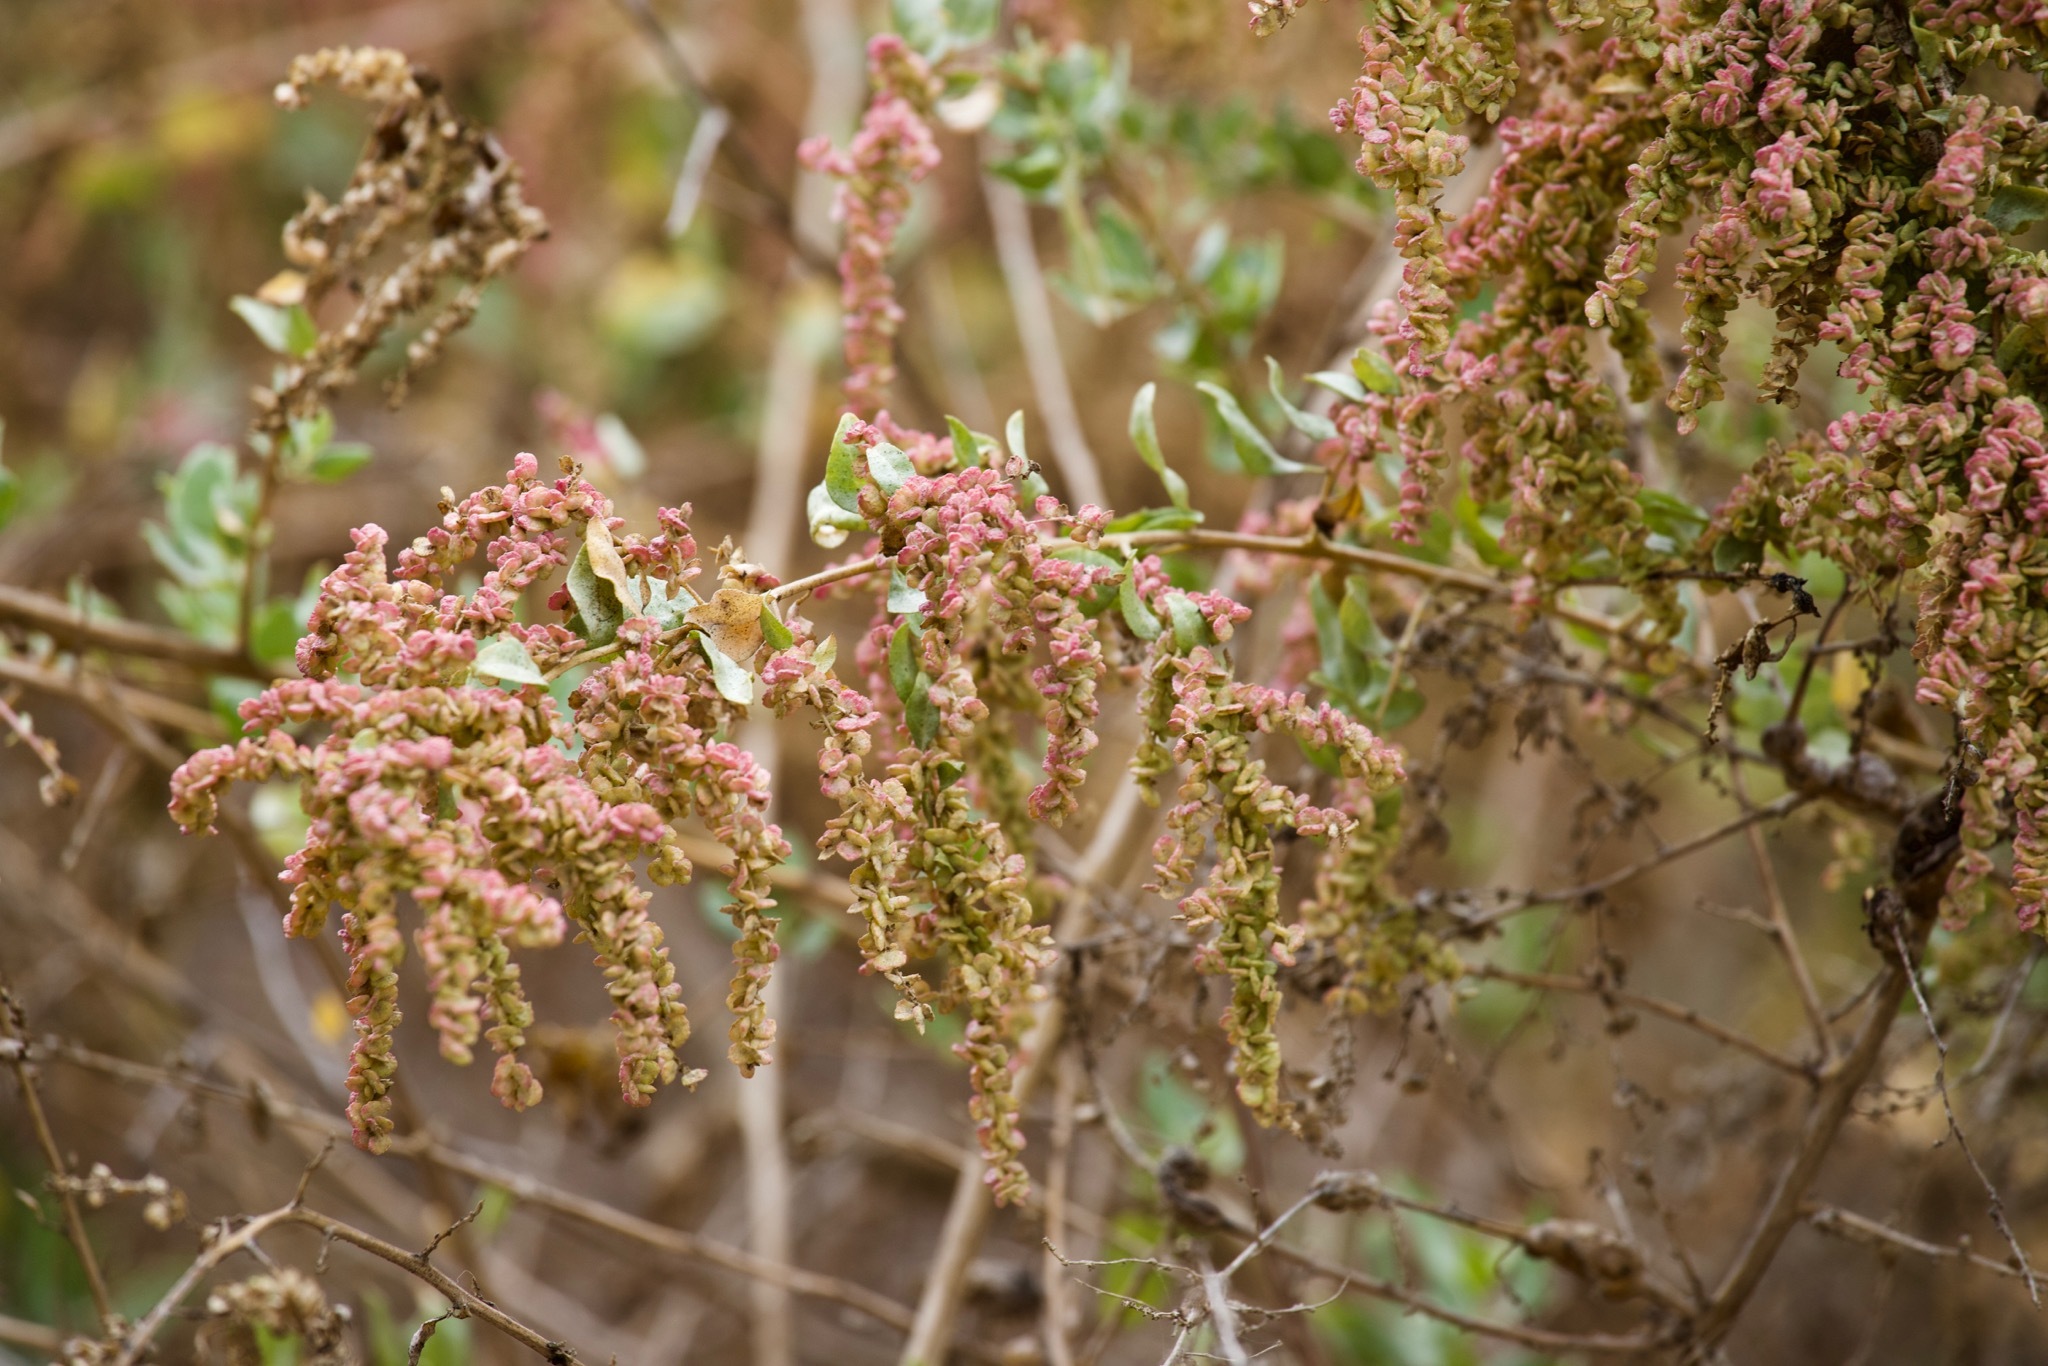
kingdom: Plantae
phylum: Tracheophyta
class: Magnoliopsida
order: Caryophyllales
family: Amaranthaceae
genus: Atriplex
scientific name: Atriplex lentiformis
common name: Big saltbush
